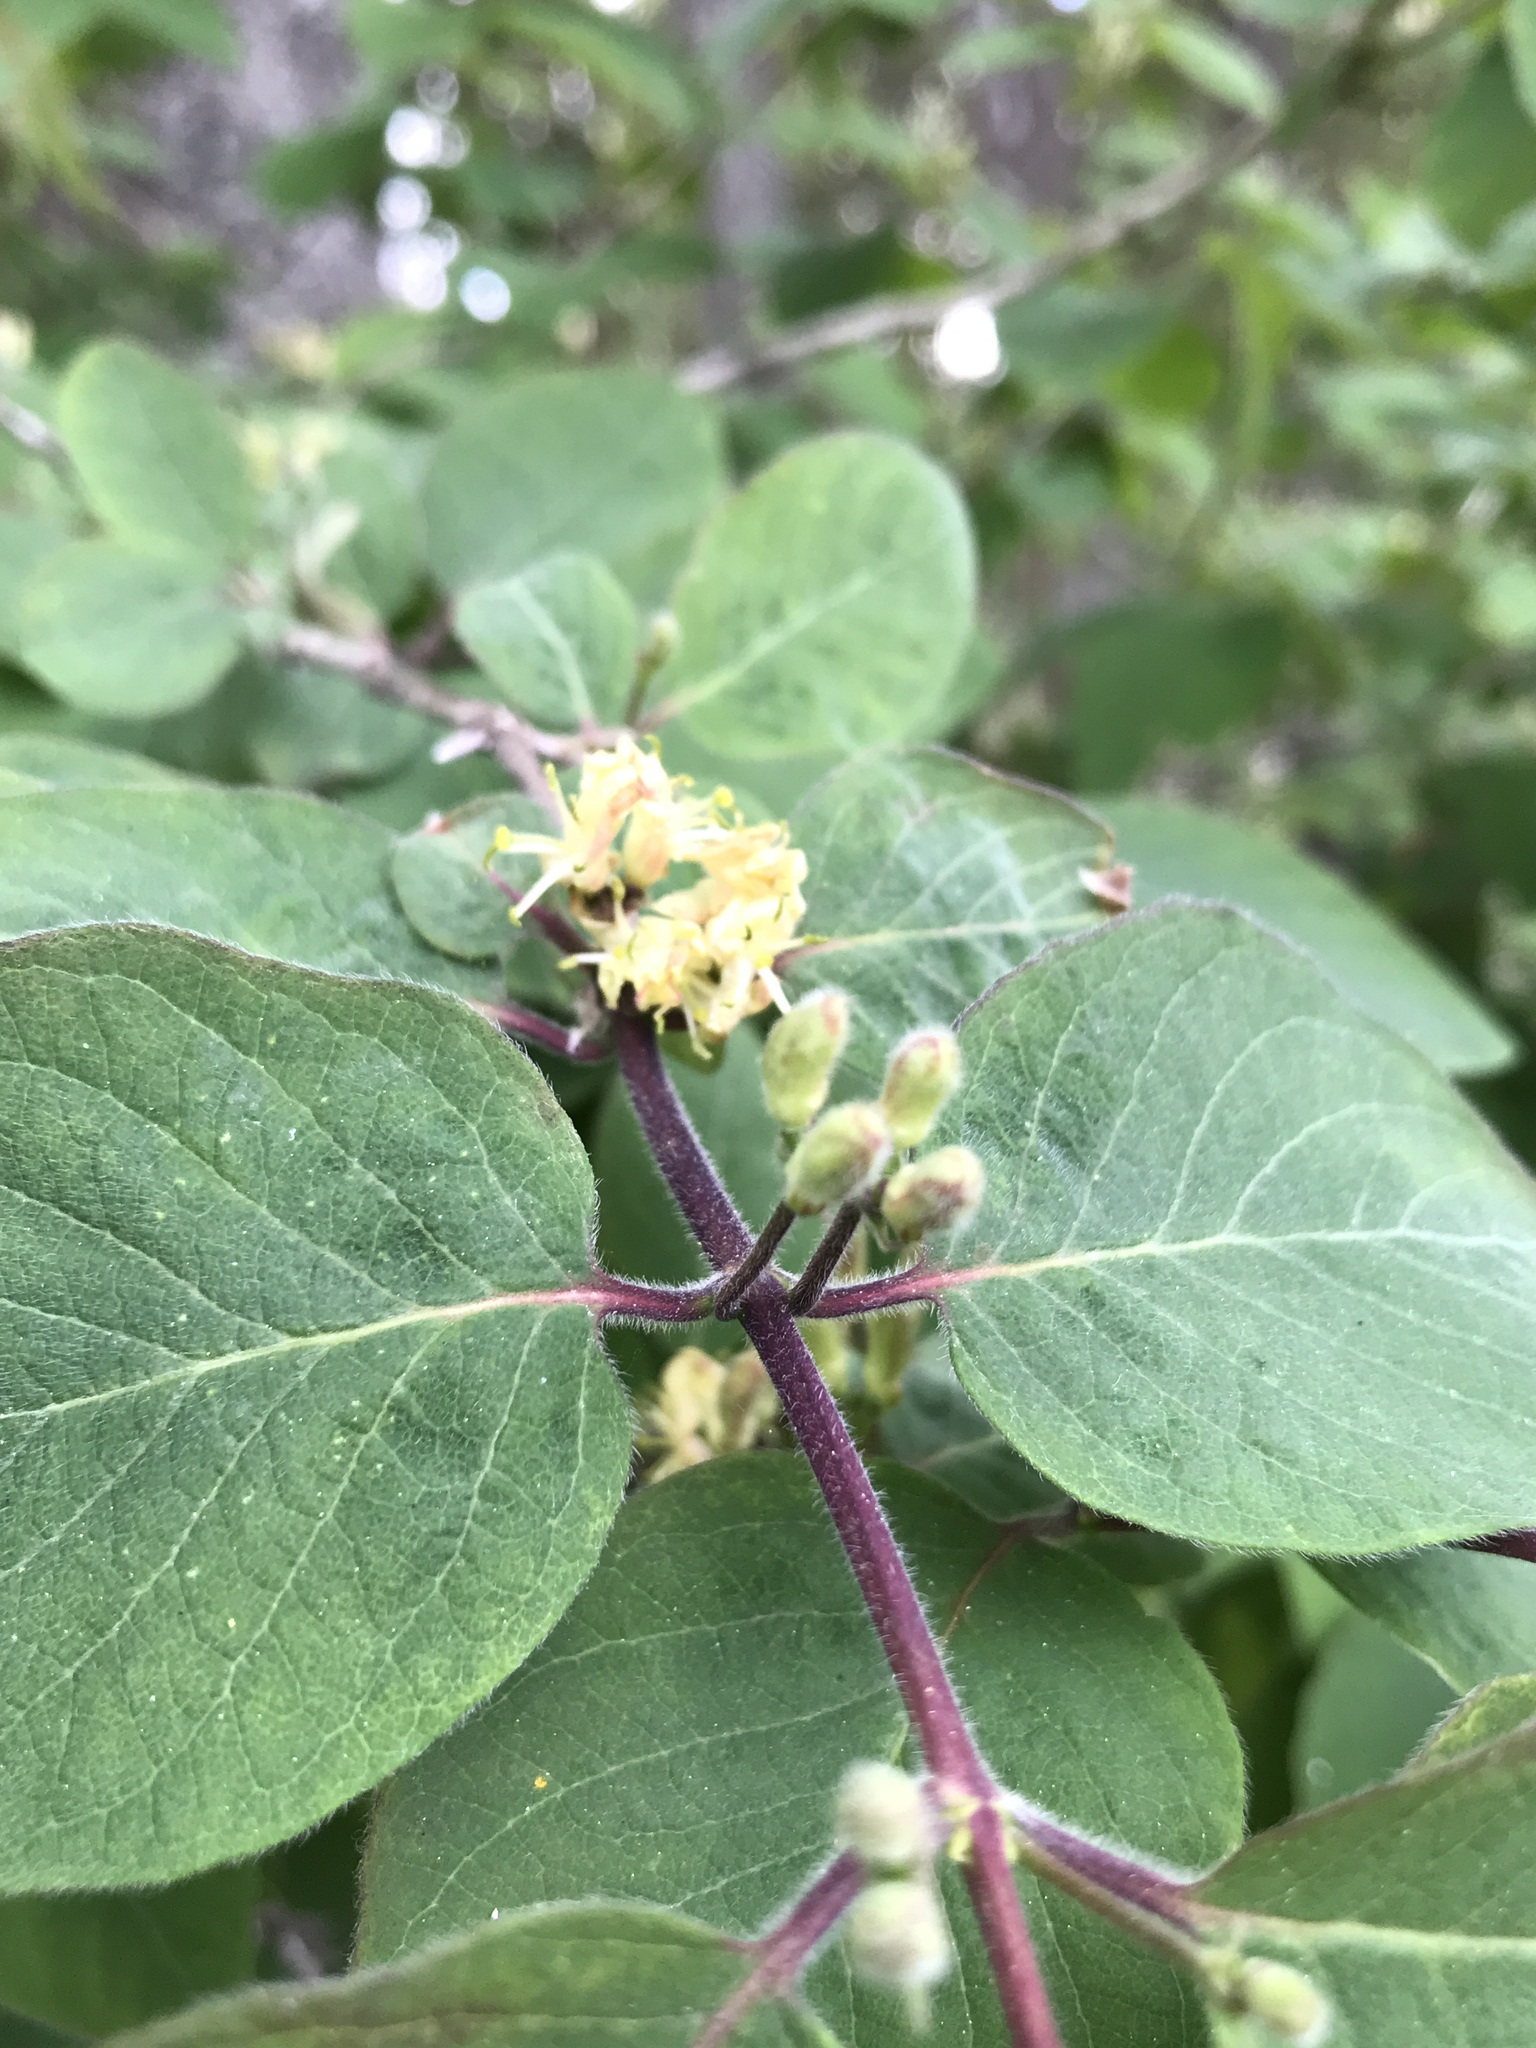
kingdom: Plantae
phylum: Tracheophyta
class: Magnoliopsida
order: Dipsacales
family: Caprifoliaceae
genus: Lonicera
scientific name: Lonicera xylosteum
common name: Fly honeysuckle
